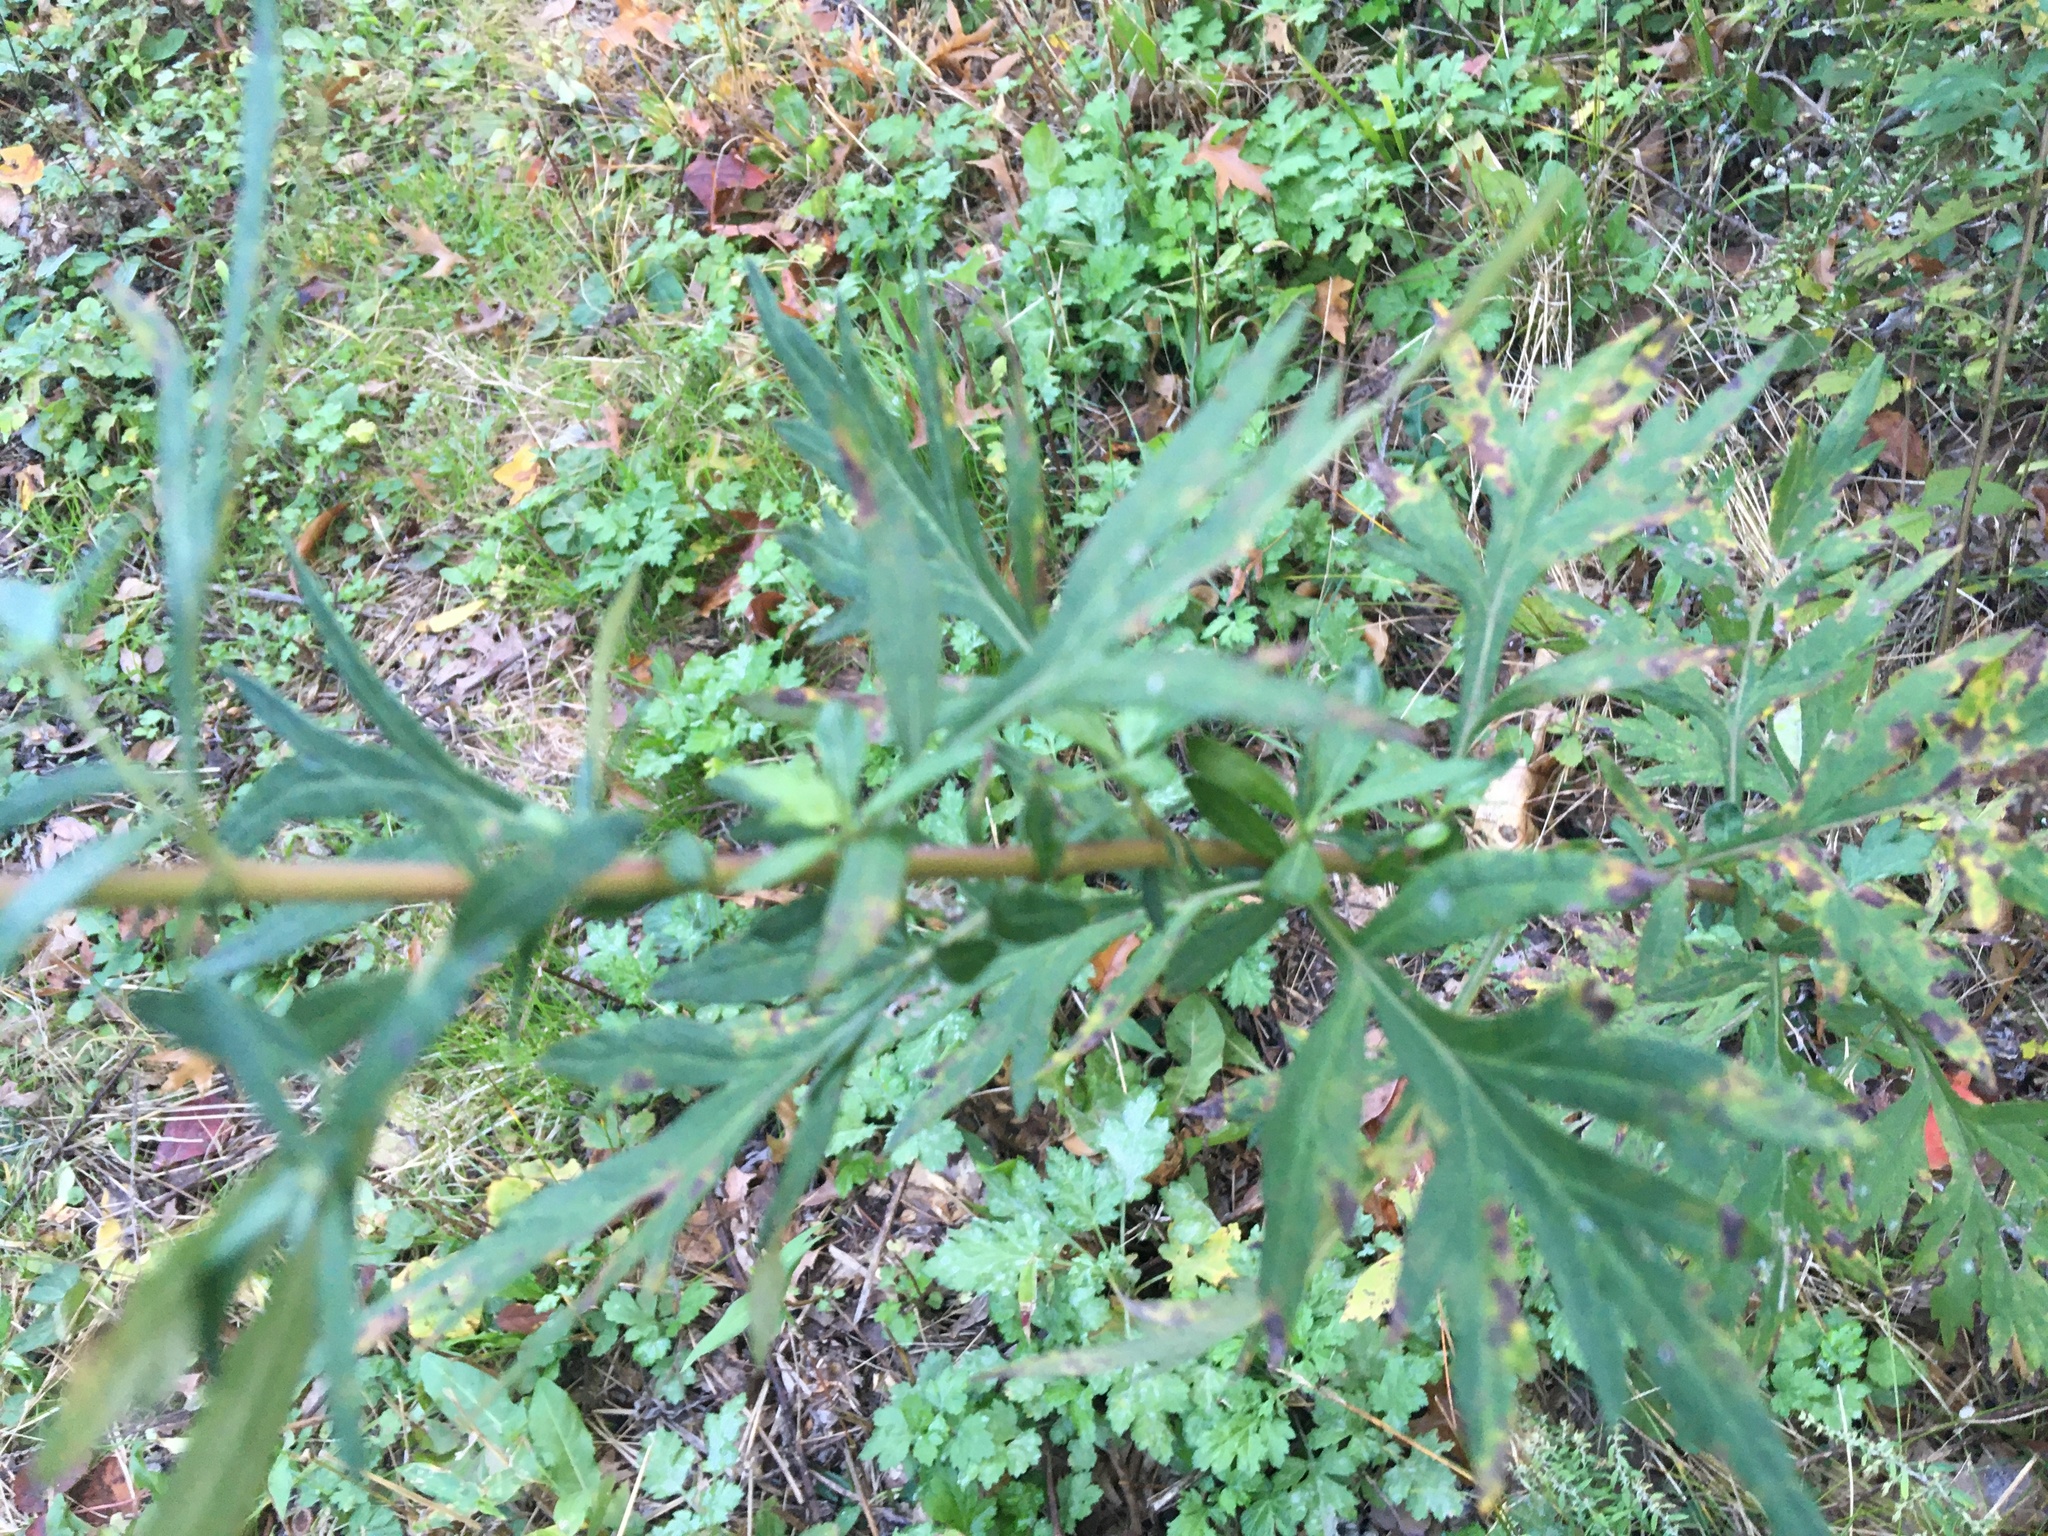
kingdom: Plantae
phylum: Tracheophyta
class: Magnoliopsida
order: Asterales
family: Asteraceae
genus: Artemisia
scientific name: Artemisia vulgaris
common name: Mugwort
